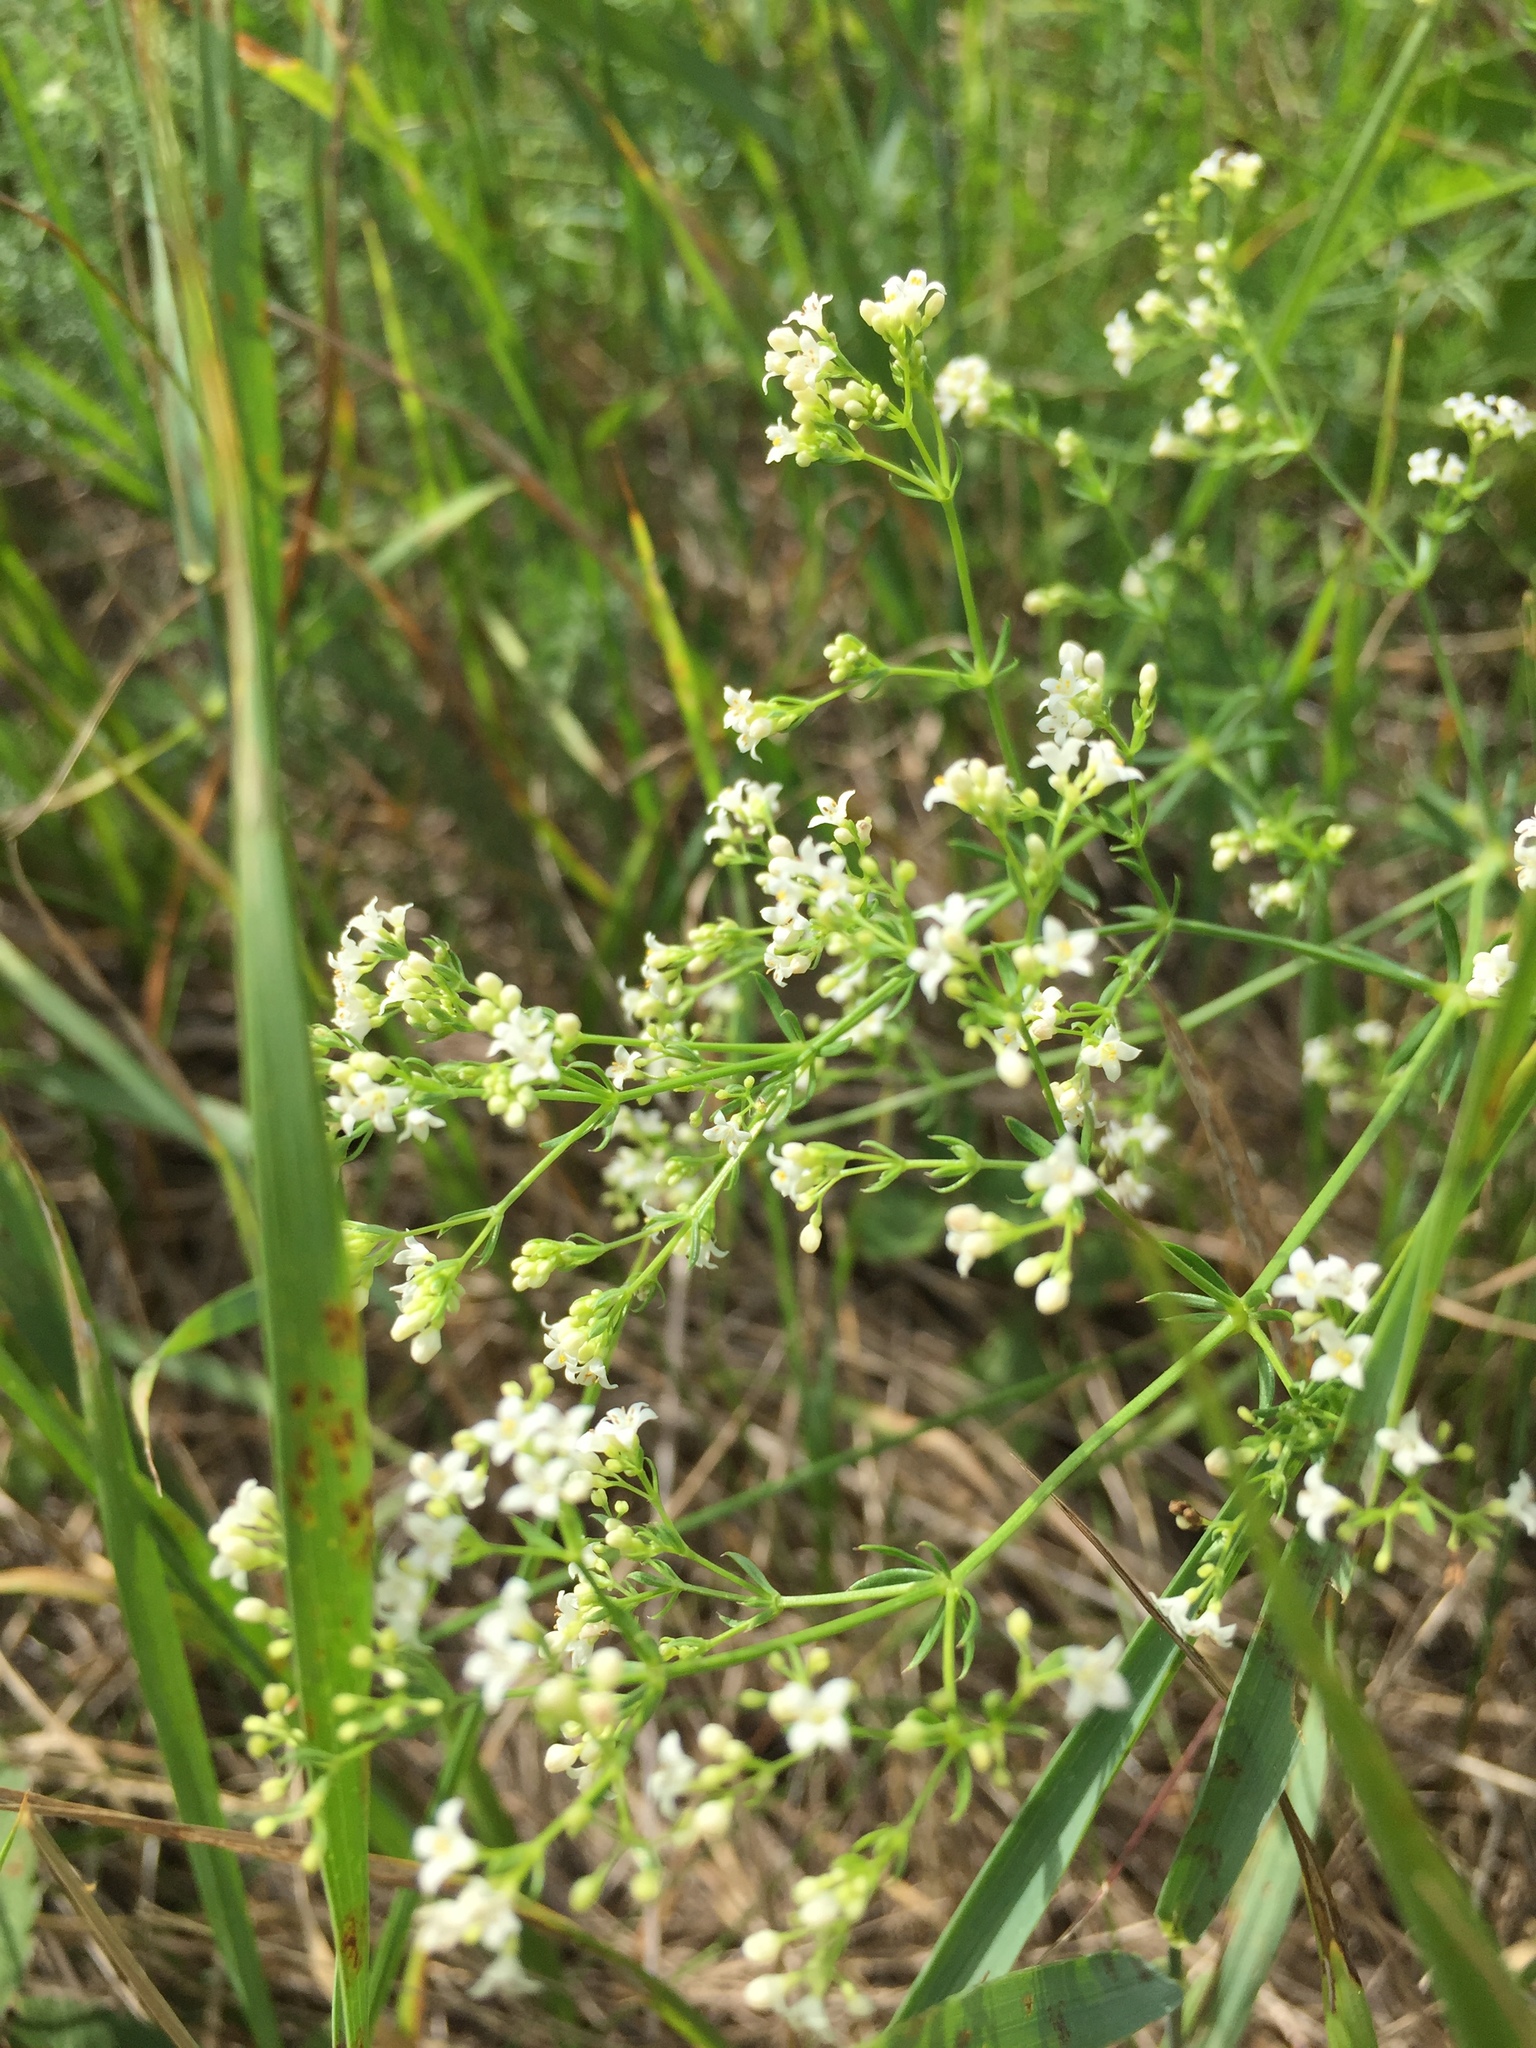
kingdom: Plantae
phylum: Tracheophyta
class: Magnoliopsida
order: Gentianales
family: Rubiaceae
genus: Galium
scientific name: Galium octonarium
